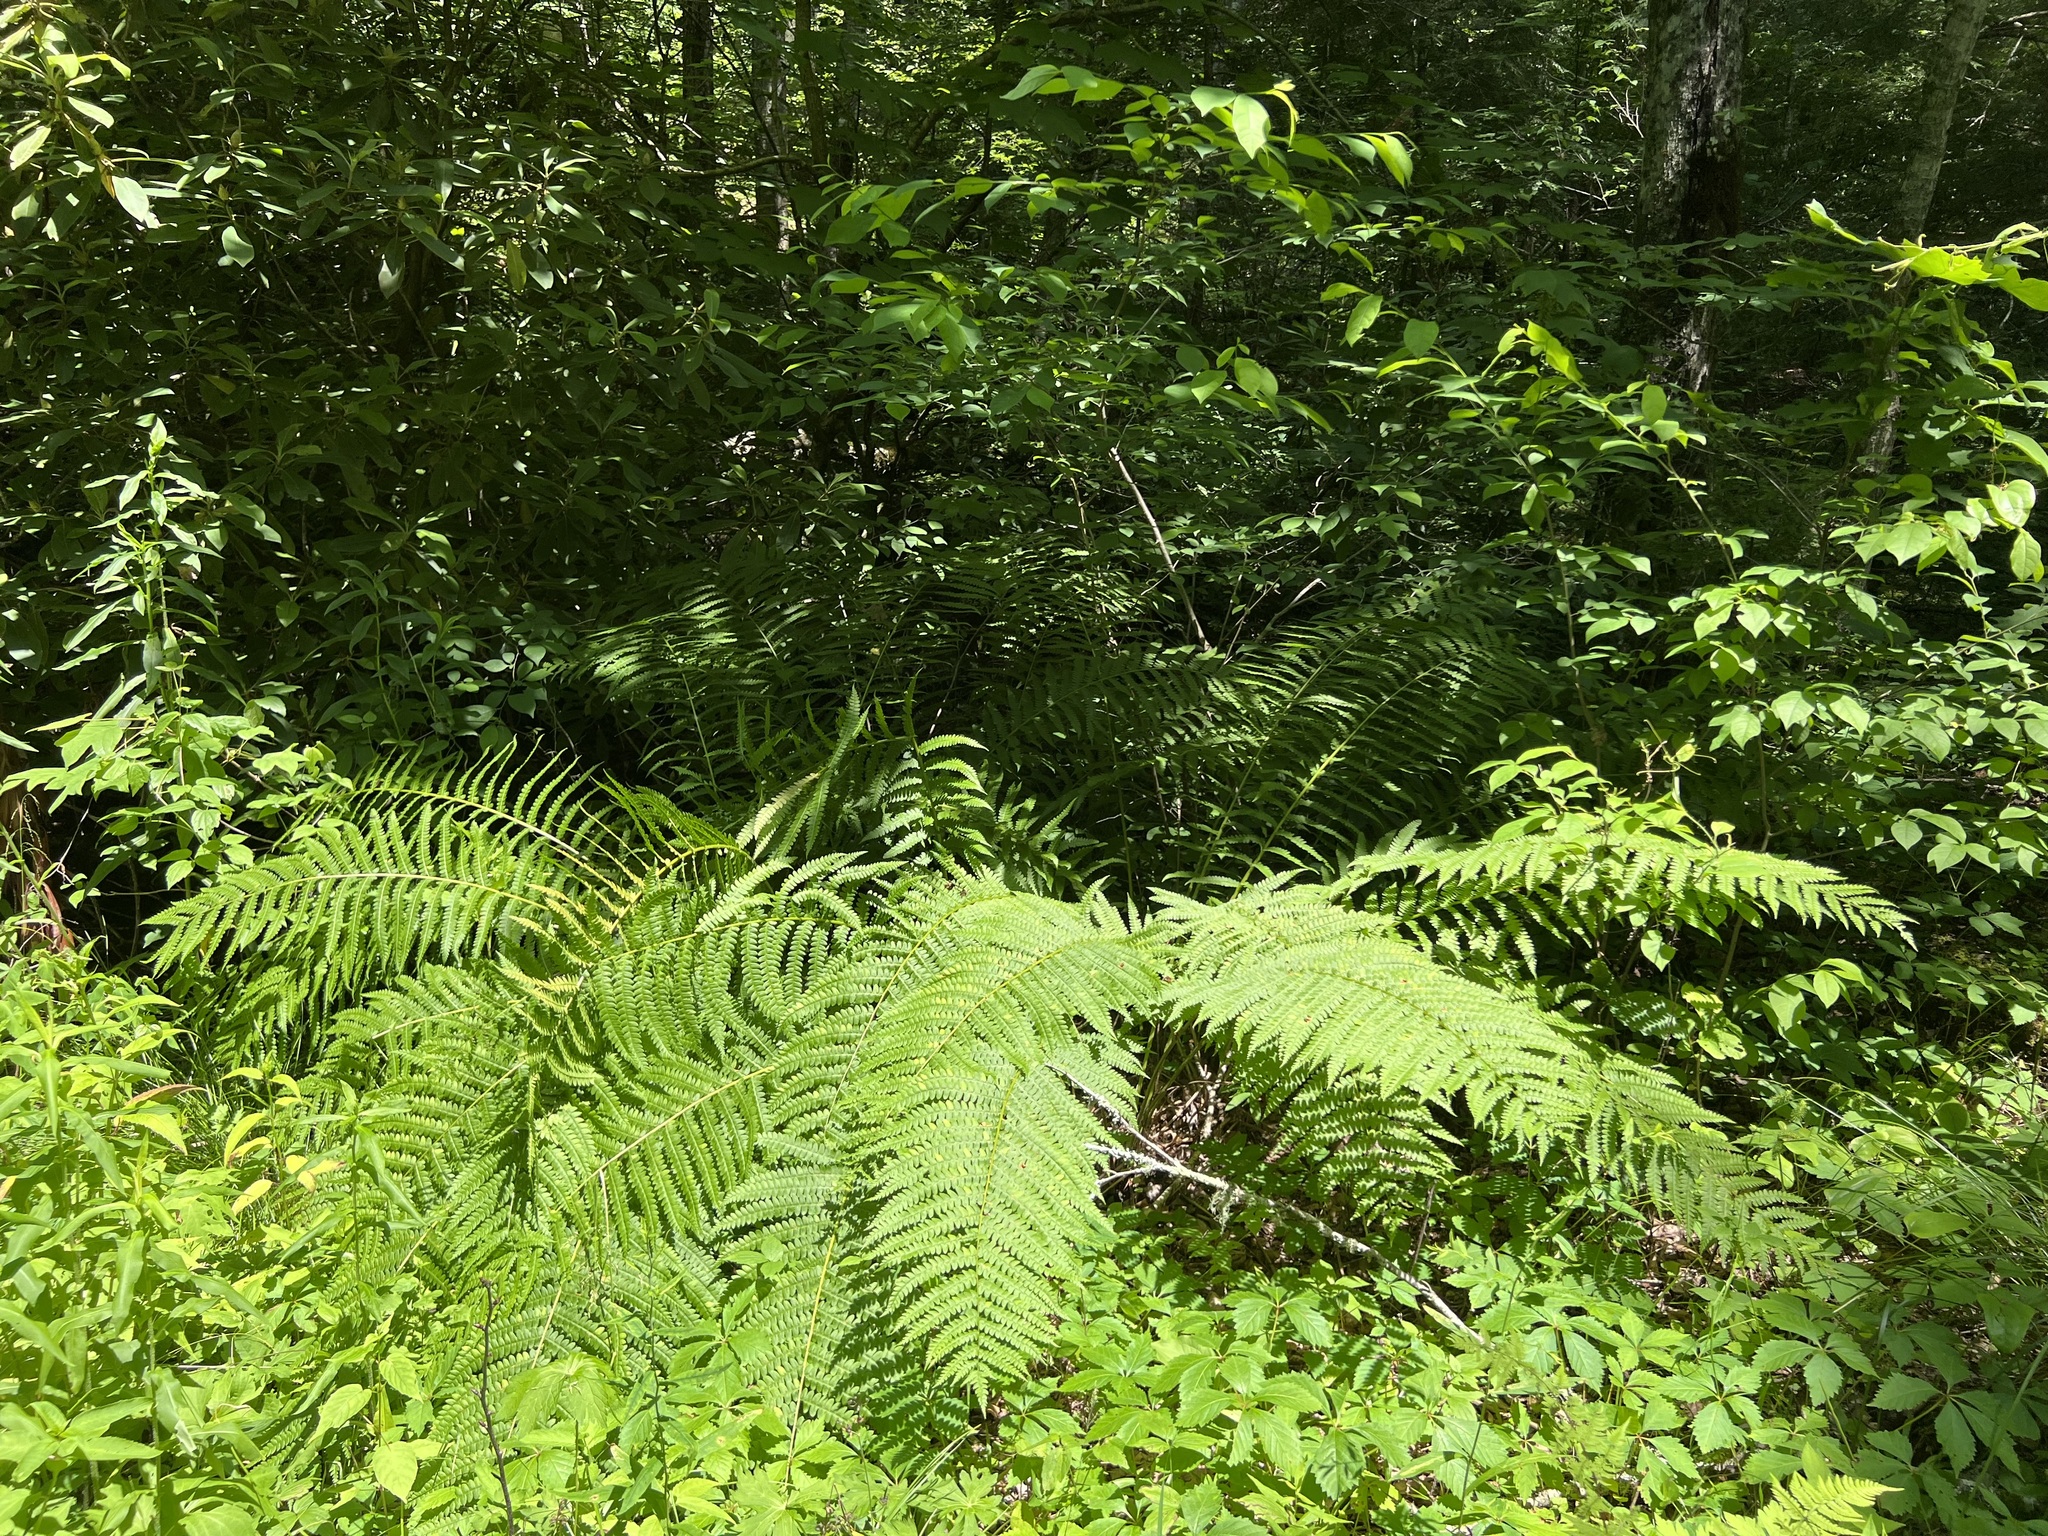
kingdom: Plantae
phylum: Tracheophyta
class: Polypodiopsida
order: Osmundales
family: Osmundaceae
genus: Osmundastrum
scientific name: Osmundastrum cinnamomeum
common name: Cinnamon fern
